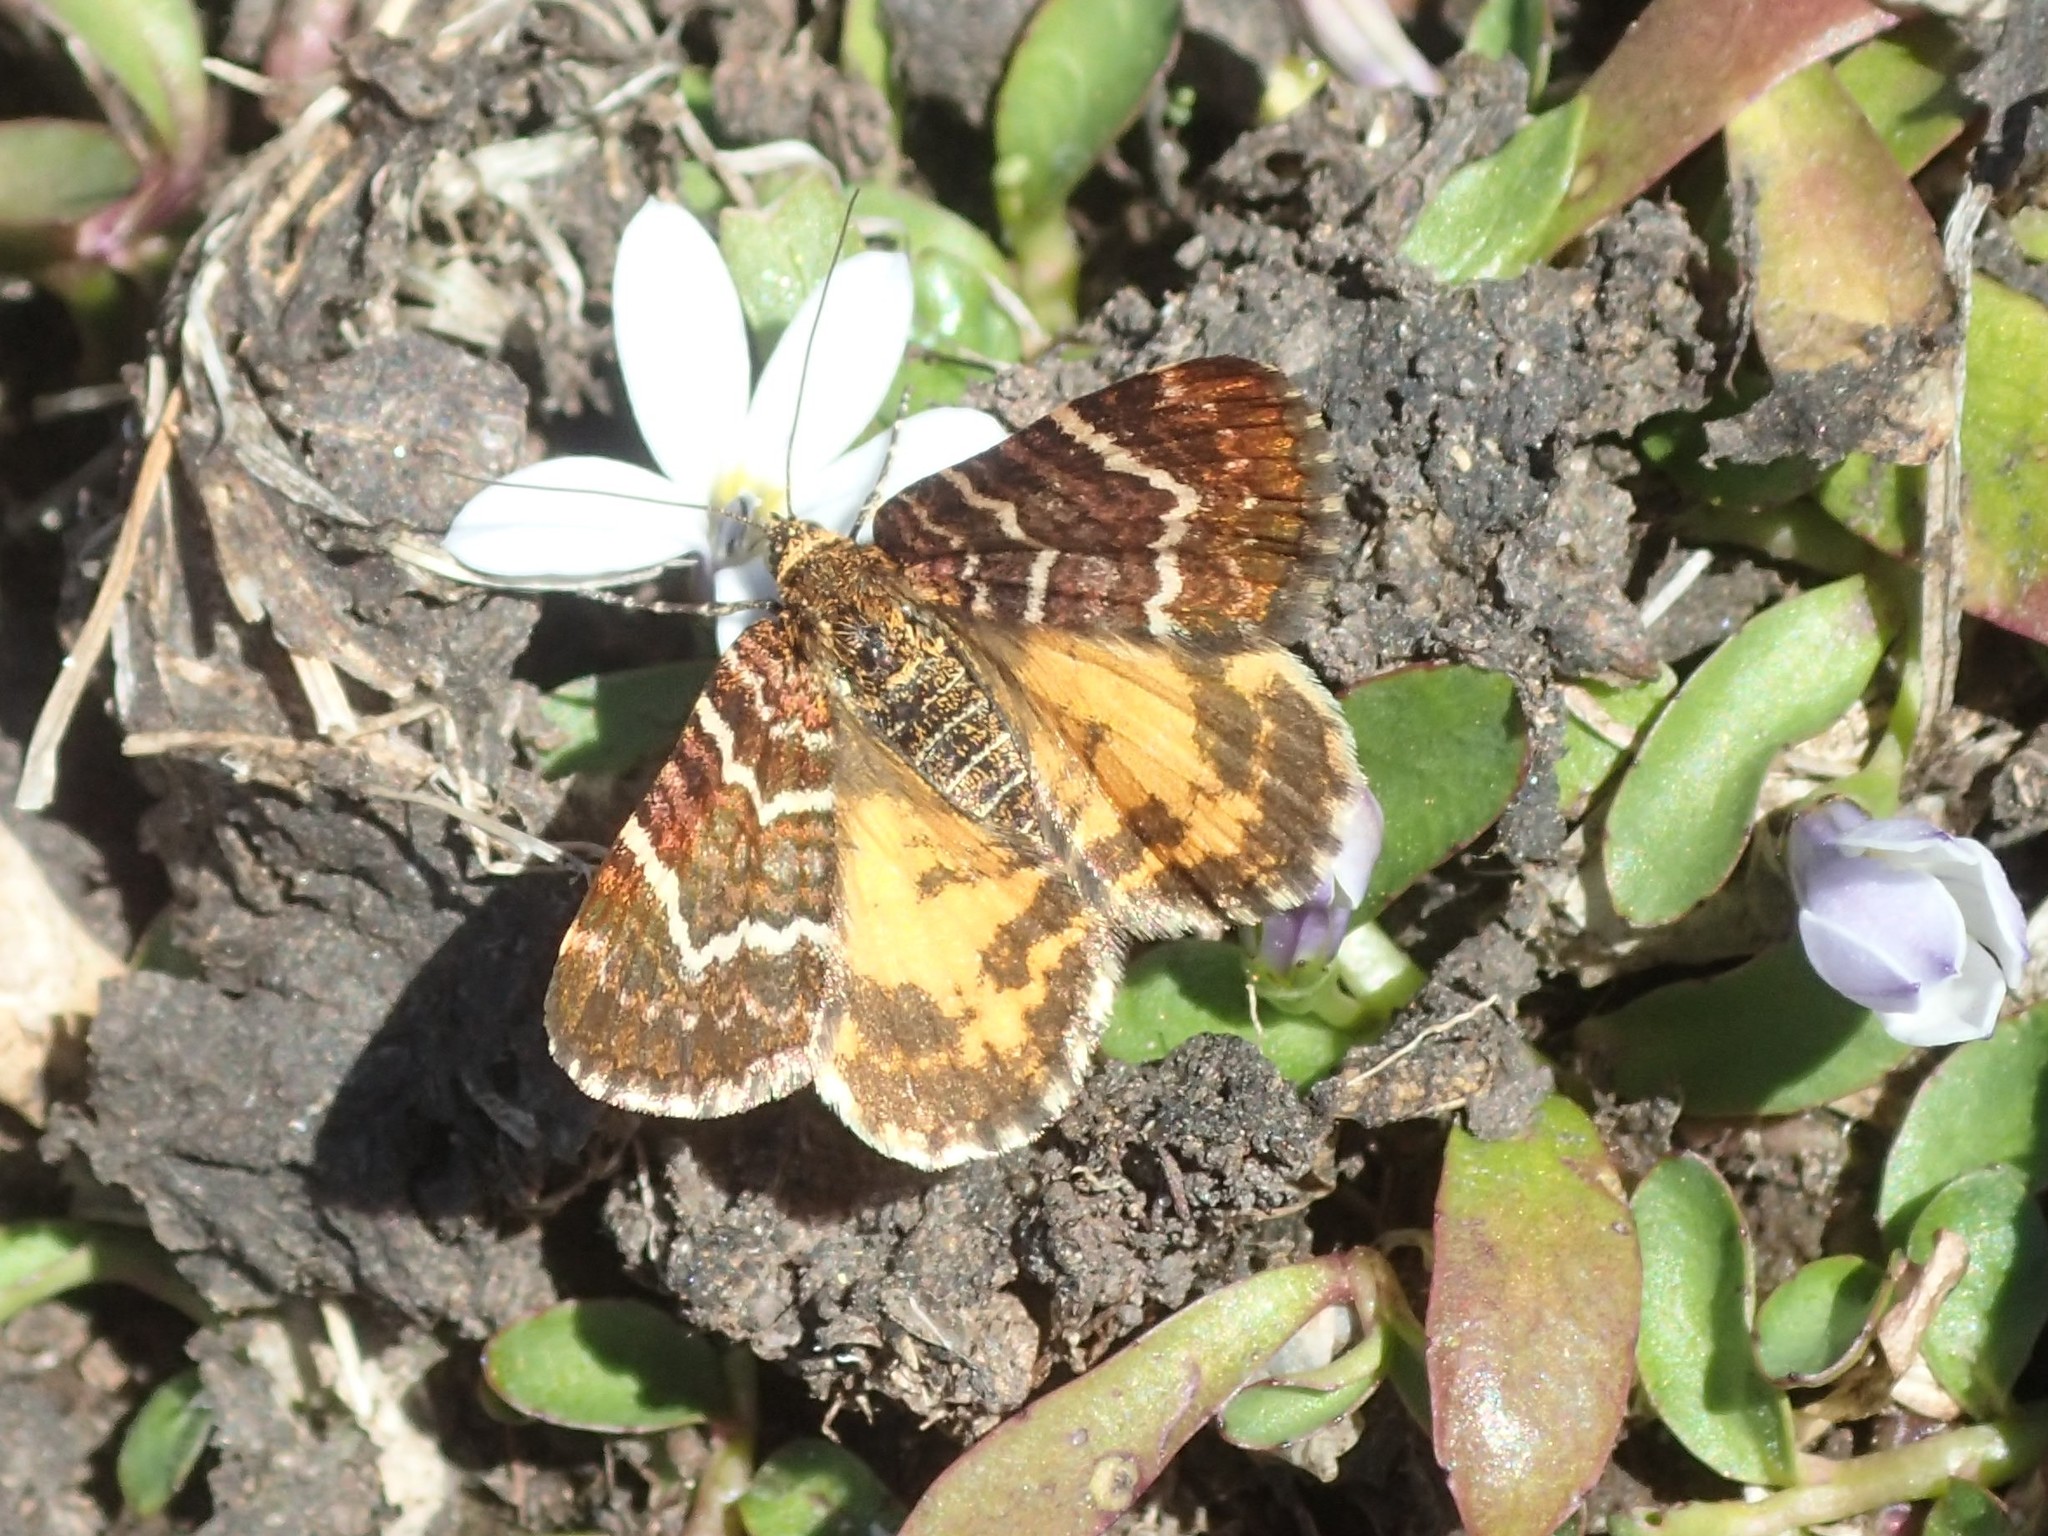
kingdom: Animalia
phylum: Arthropoda
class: Insecta
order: Lepidoptera
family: Geometridae
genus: Chrysolarentia
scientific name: Chrysolarentia polycarpa
